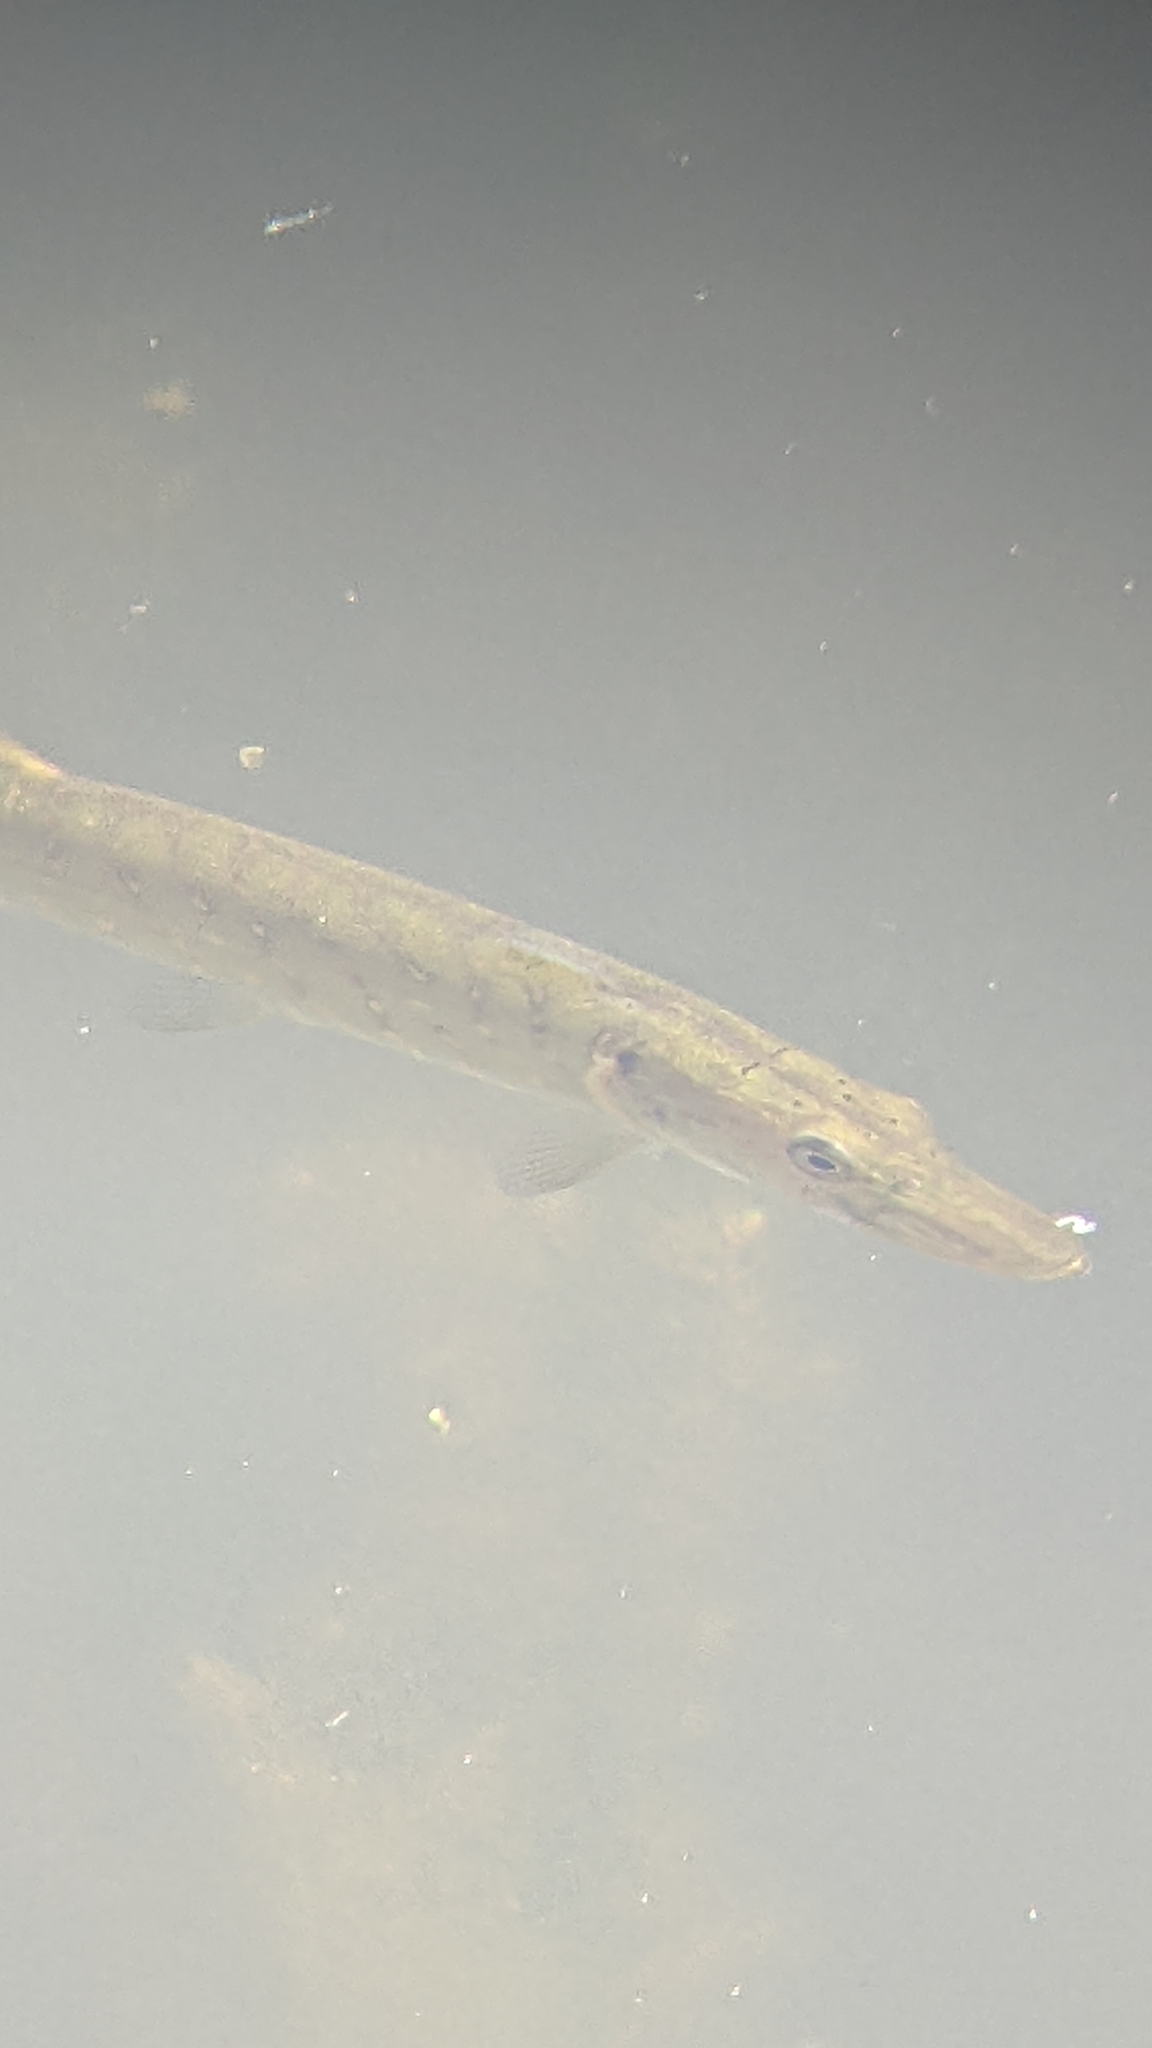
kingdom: Animalia
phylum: Chordata
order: Esociformes
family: Esocidae
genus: Esox
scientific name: Esox lucius
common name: Northern pike
